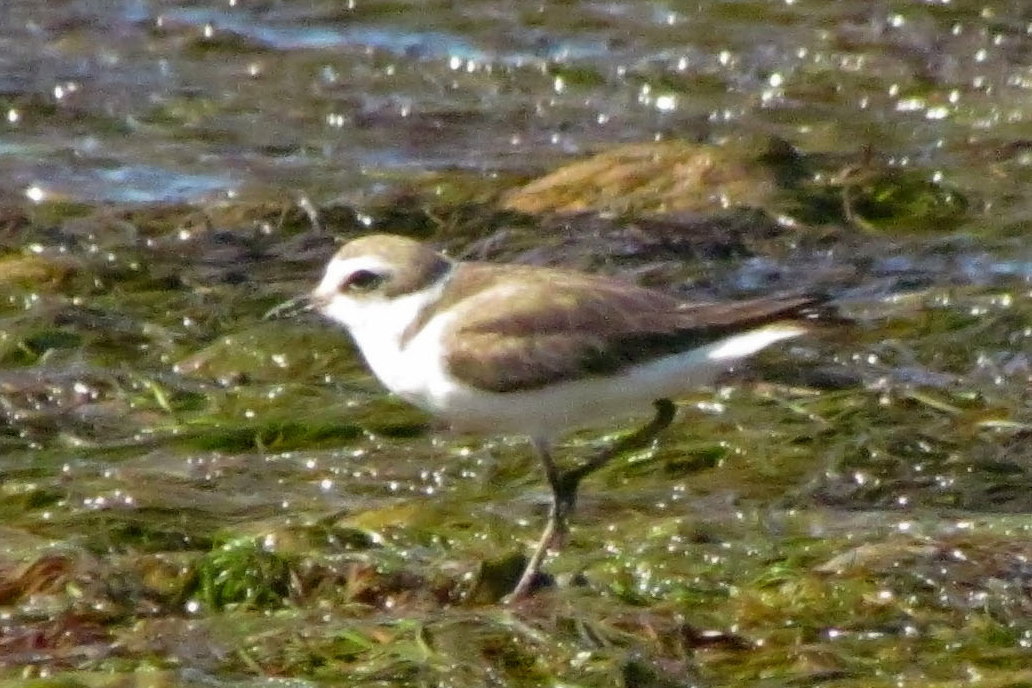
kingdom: Animalia
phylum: Chordata
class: Aves
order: Charadriiformes
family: Charadriidae
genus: Charadrius
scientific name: Charadrius alexandrinus
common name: Kentish plover
